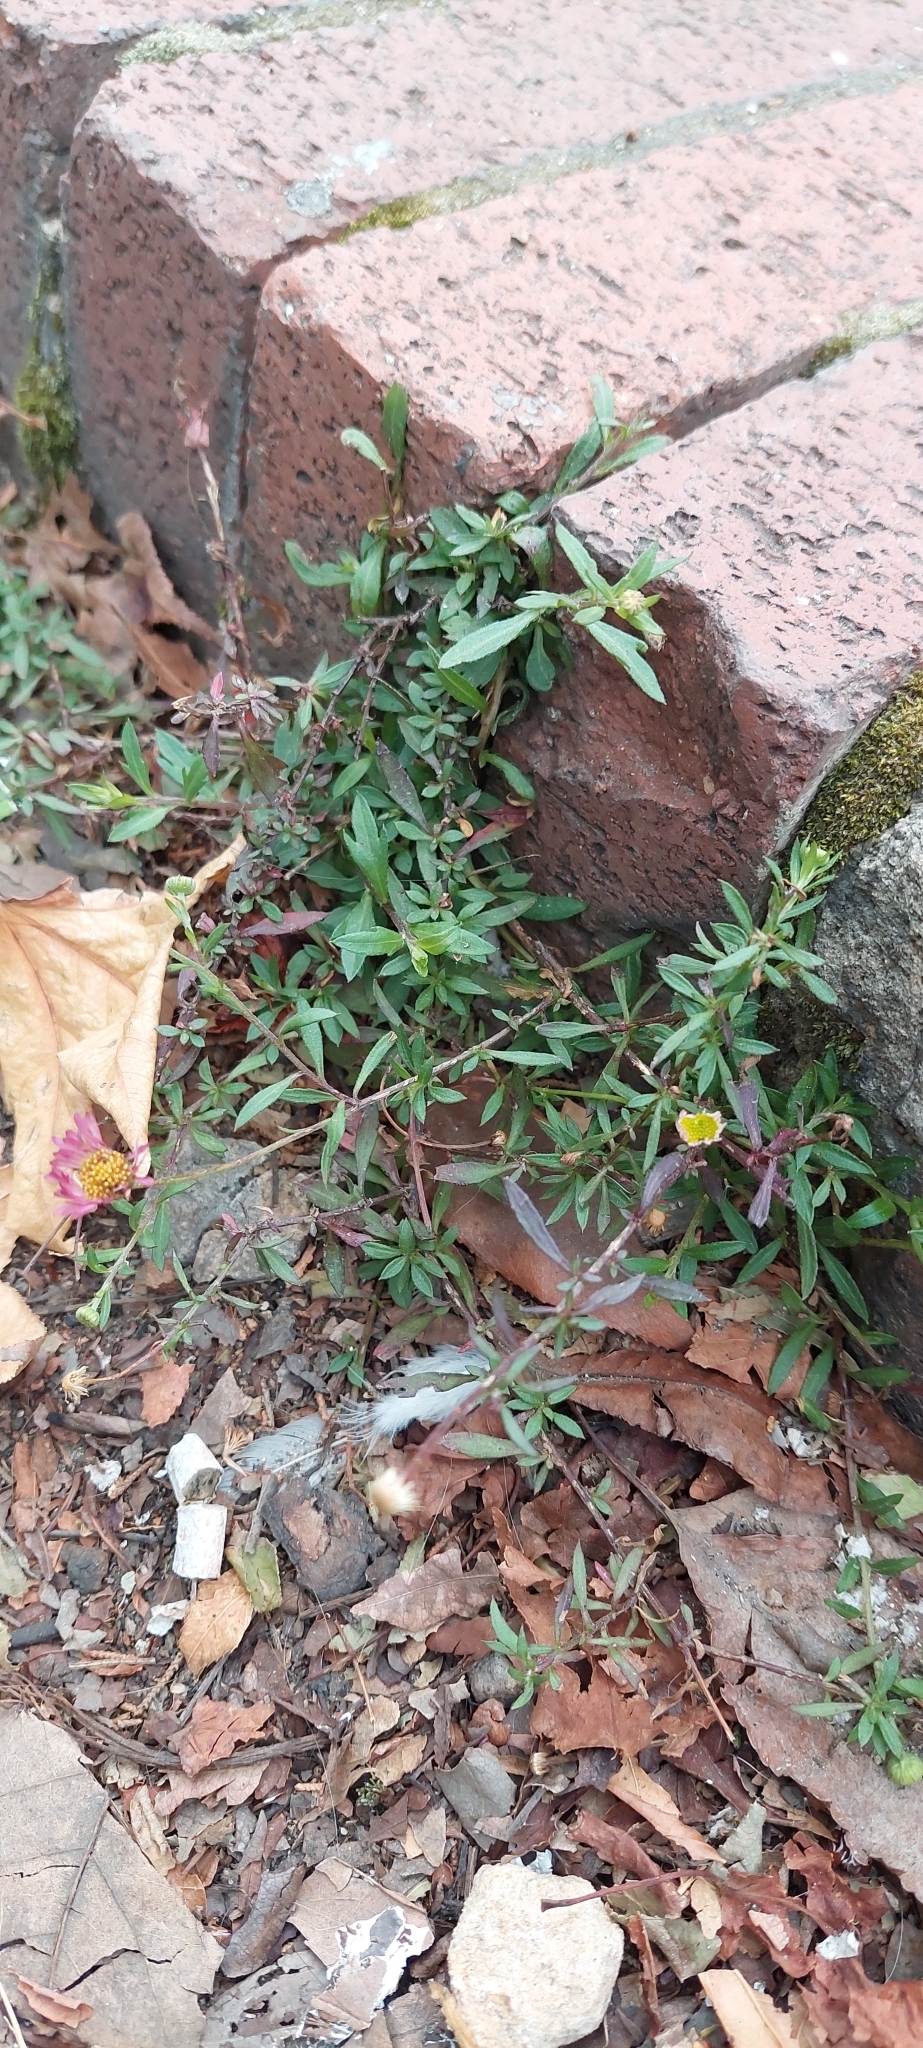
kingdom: Plantae
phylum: Tracheophyta
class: Magnoliopsida
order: Asterales
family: Asteraceae
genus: Erigeron
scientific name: Erigeron karvinskianus
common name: Mexican fleabane
